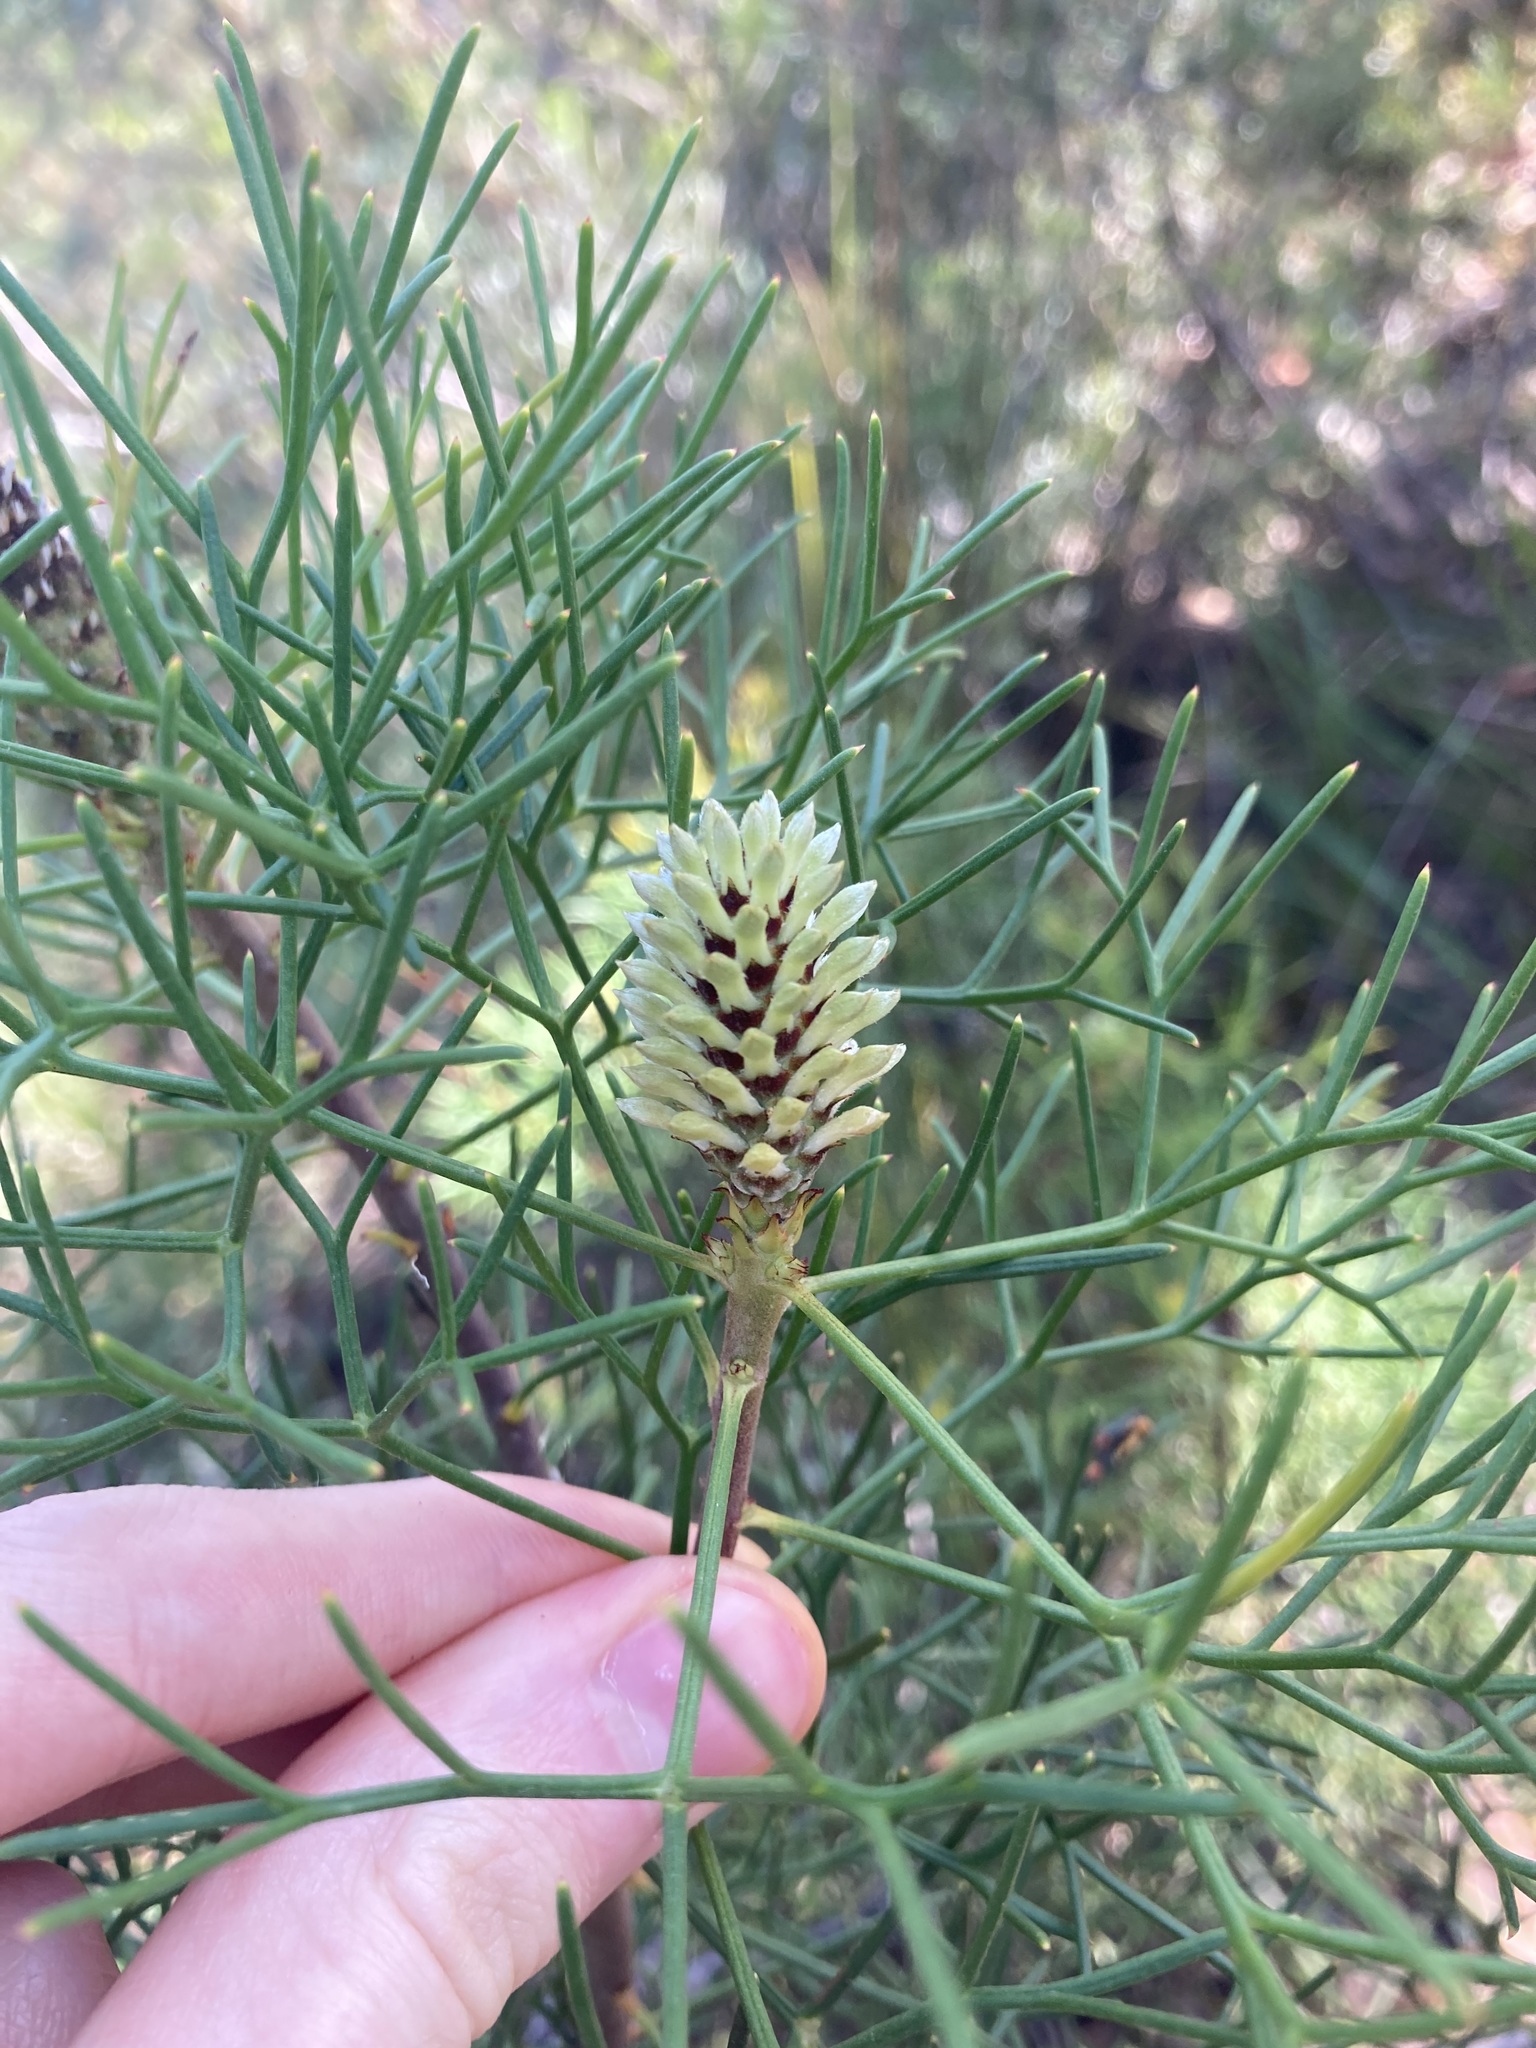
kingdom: Plantae
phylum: Tracheophyta
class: Magnoliopsida
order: Proteales
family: Proteaceae
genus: Petrophile
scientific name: Petrophile sessilis
